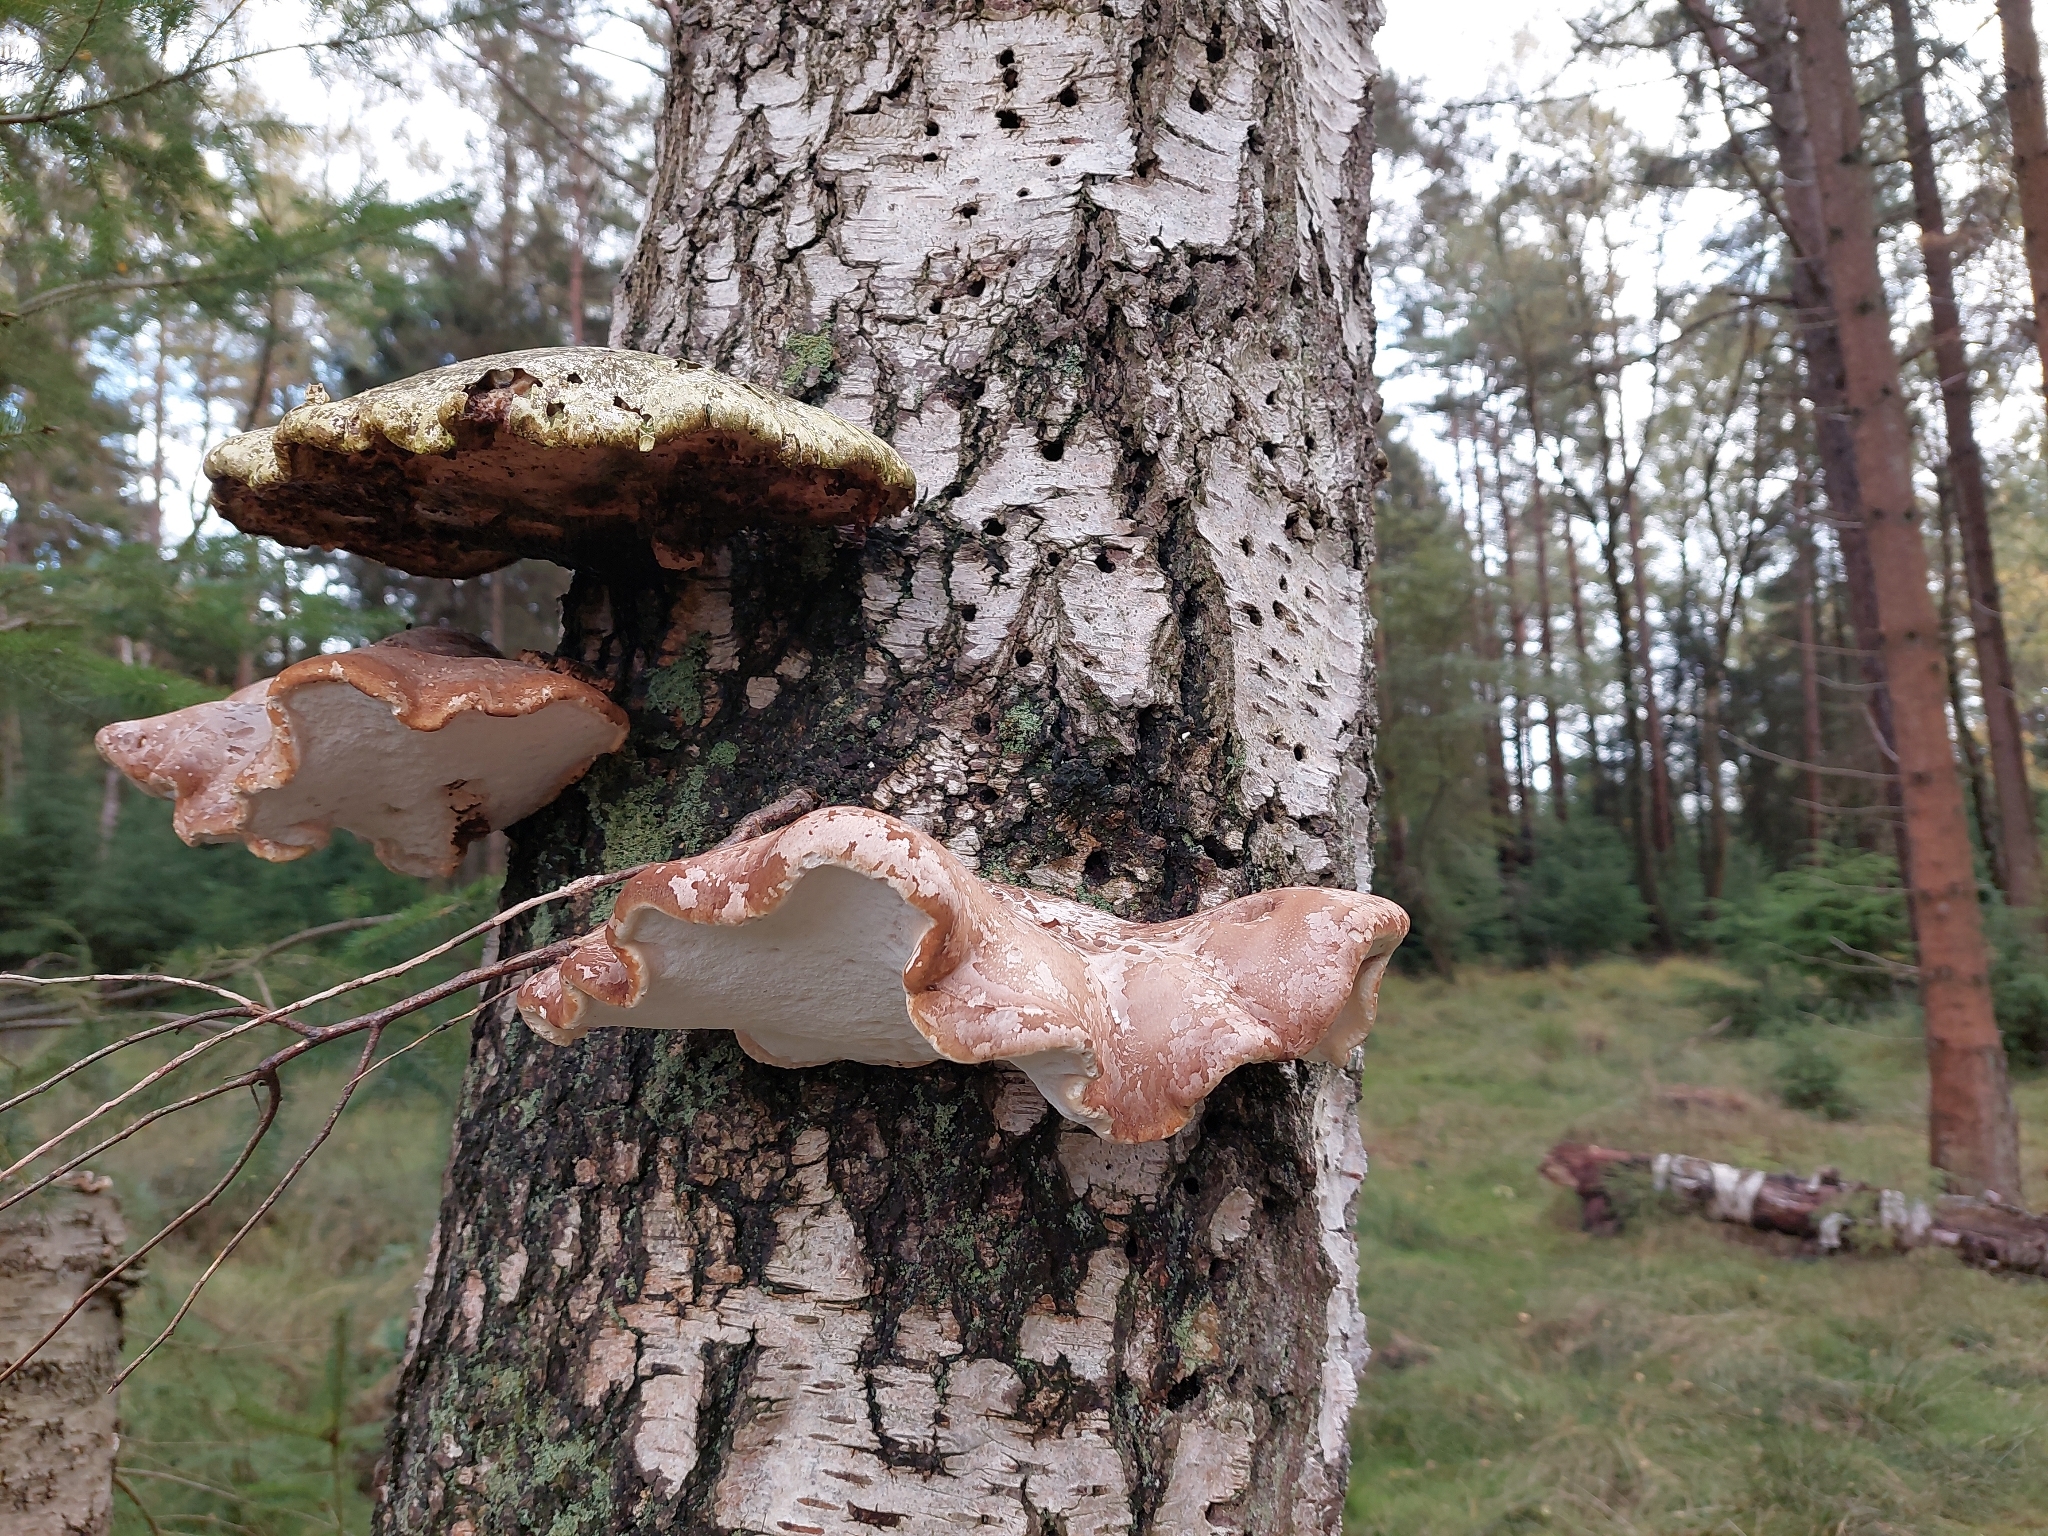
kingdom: Fungi
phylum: Basidiomycota
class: Agaricomycetes
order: Polyporales
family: Fomitopsidaceae
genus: Fomitopsis
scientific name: Fomitopsis betulina
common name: Birch polypore
